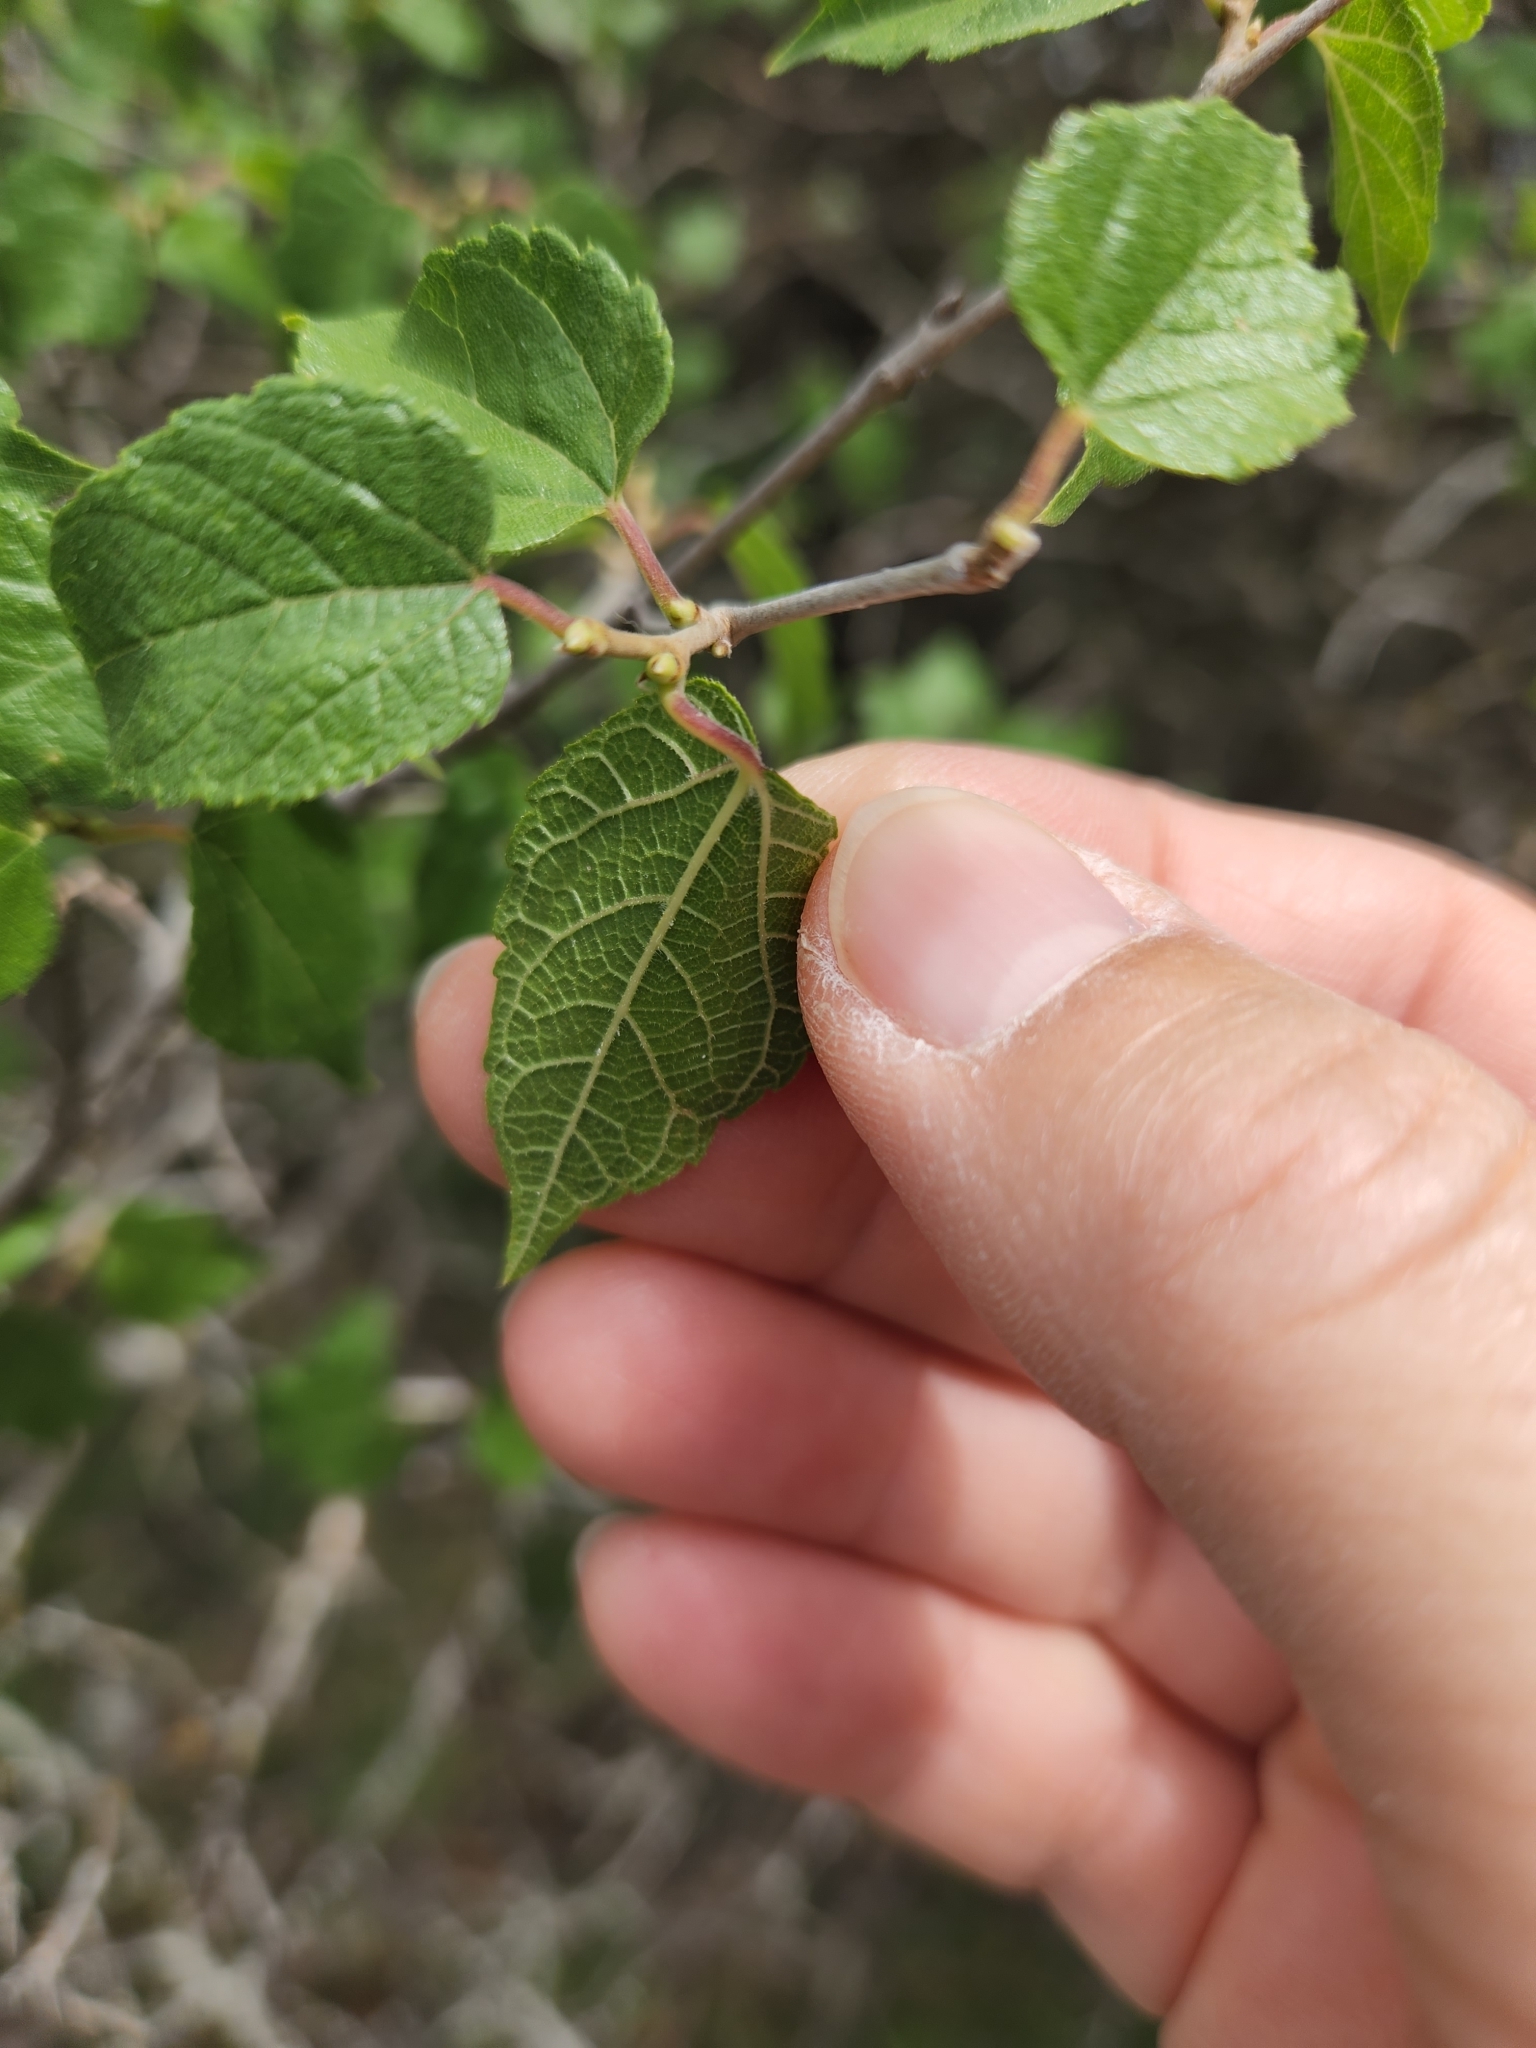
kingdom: Plantae
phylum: Tracheophyta
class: Magnoliopsida
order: Rosales
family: Moraceae
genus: Morus
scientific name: Morus microphylla
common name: Mexican mulberry
